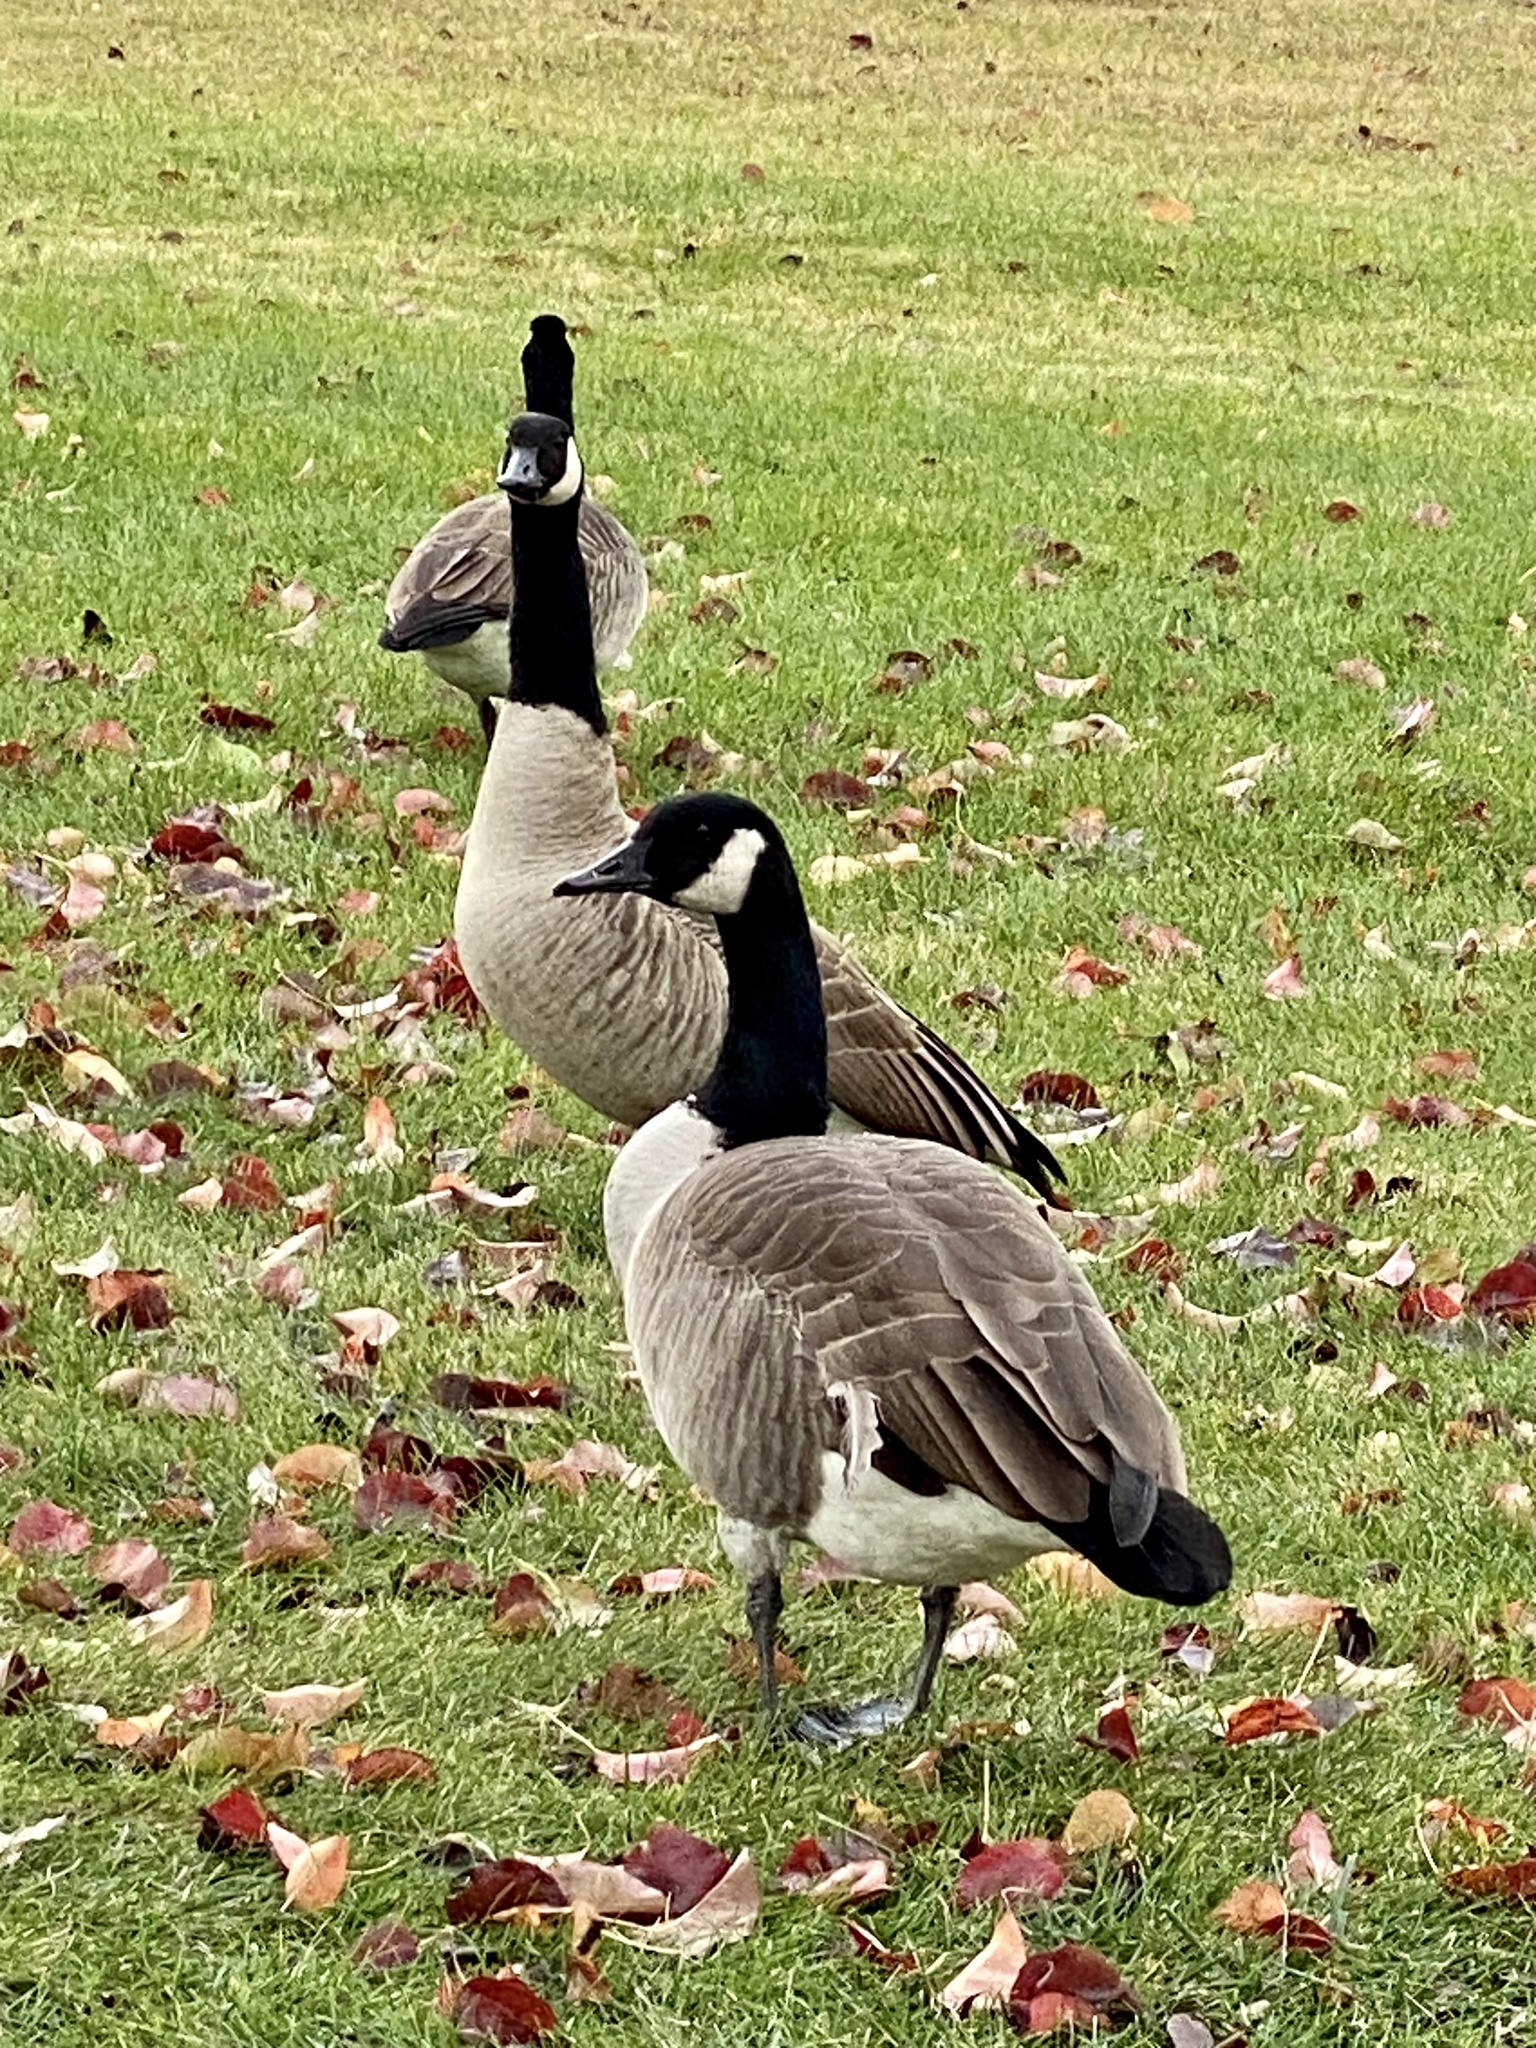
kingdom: Animalia
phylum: Chordata
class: Aves
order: Anseriformes
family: Anatidae
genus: Branta
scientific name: Branta canadensis
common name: Canada goose
